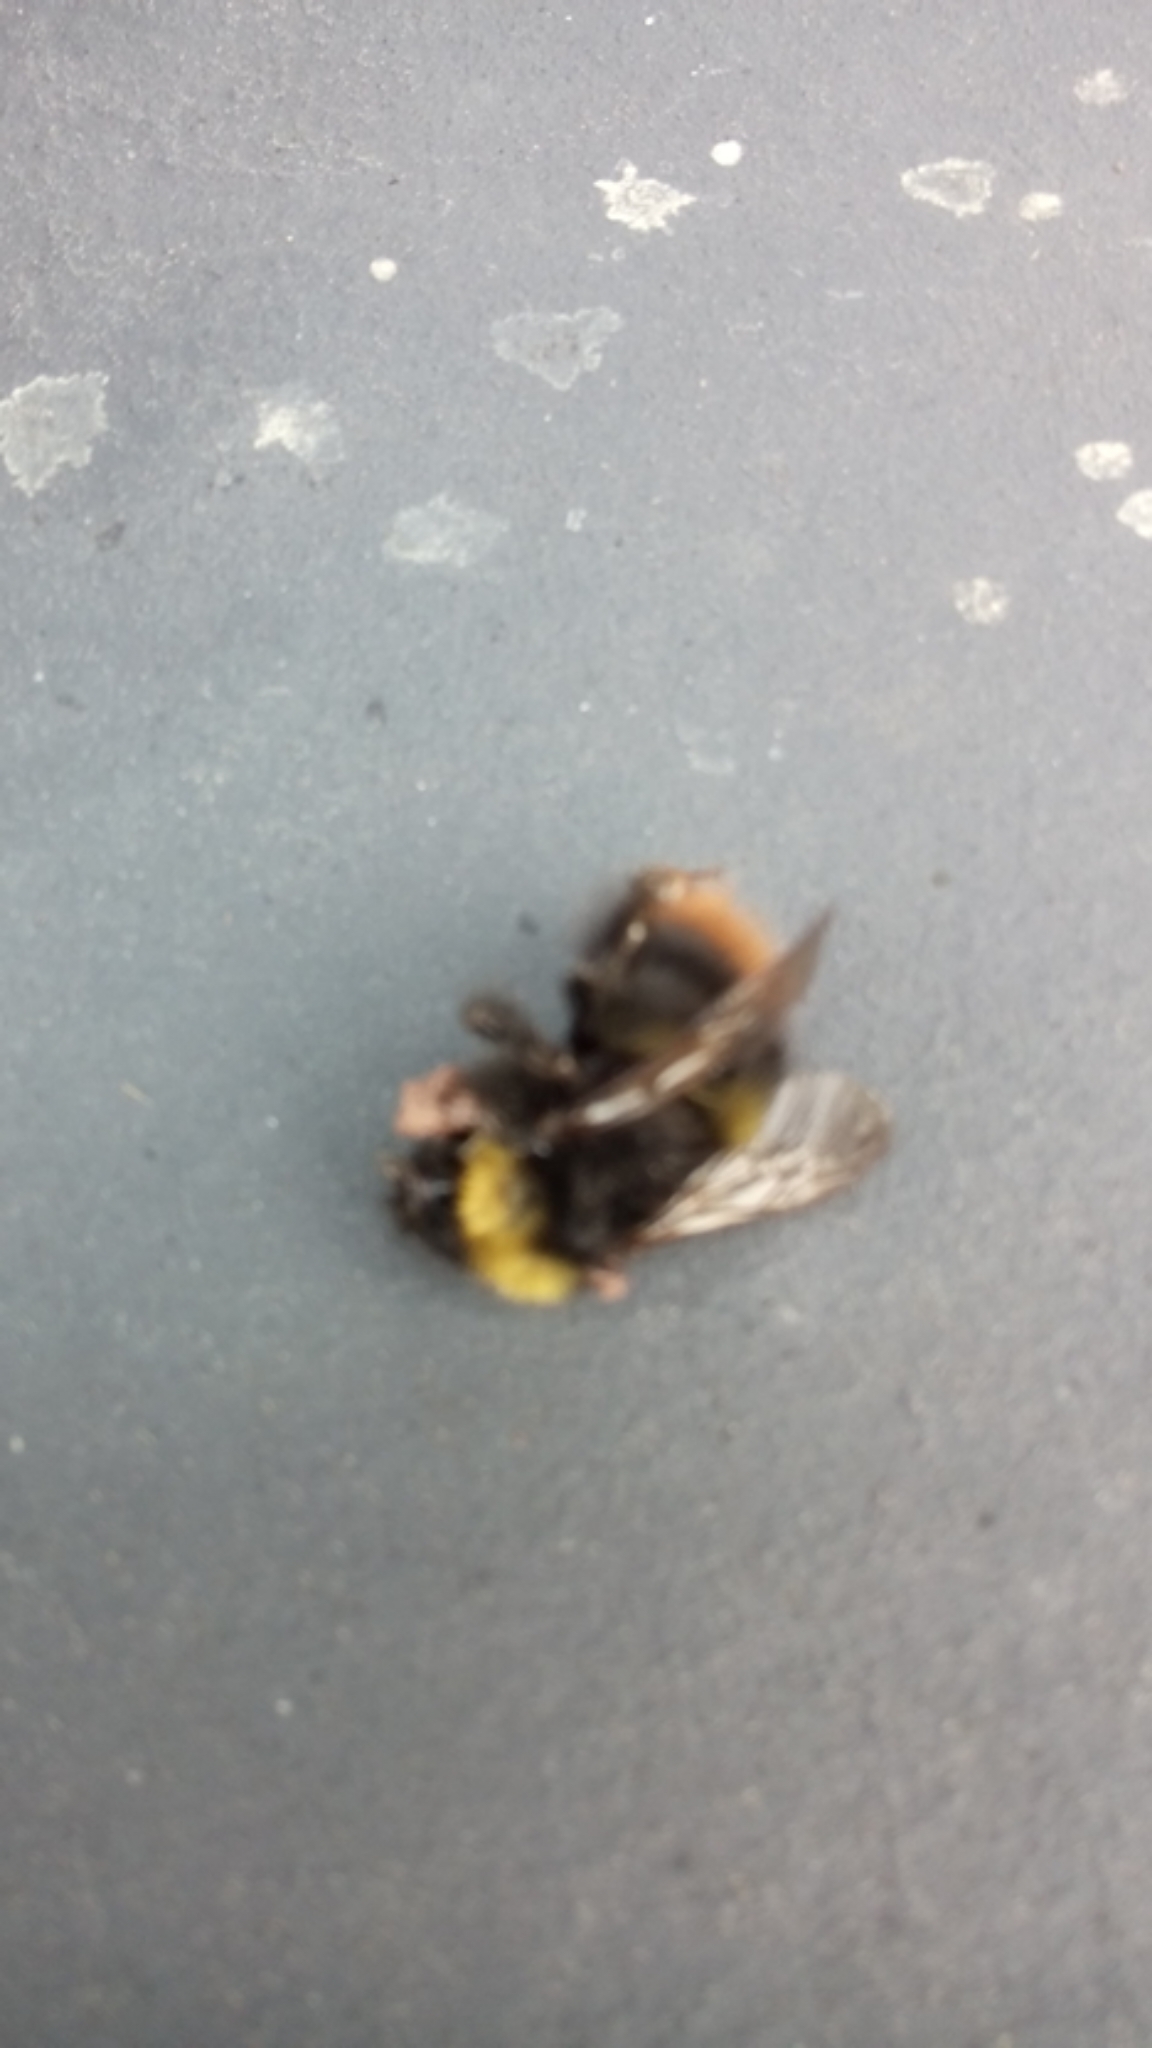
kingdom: Animalia
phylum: Arthropoda
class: Insecta
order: Hymenoptera
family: Apidae
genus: Bombus
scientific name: Bombus pratorum
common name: Early humble-bee
